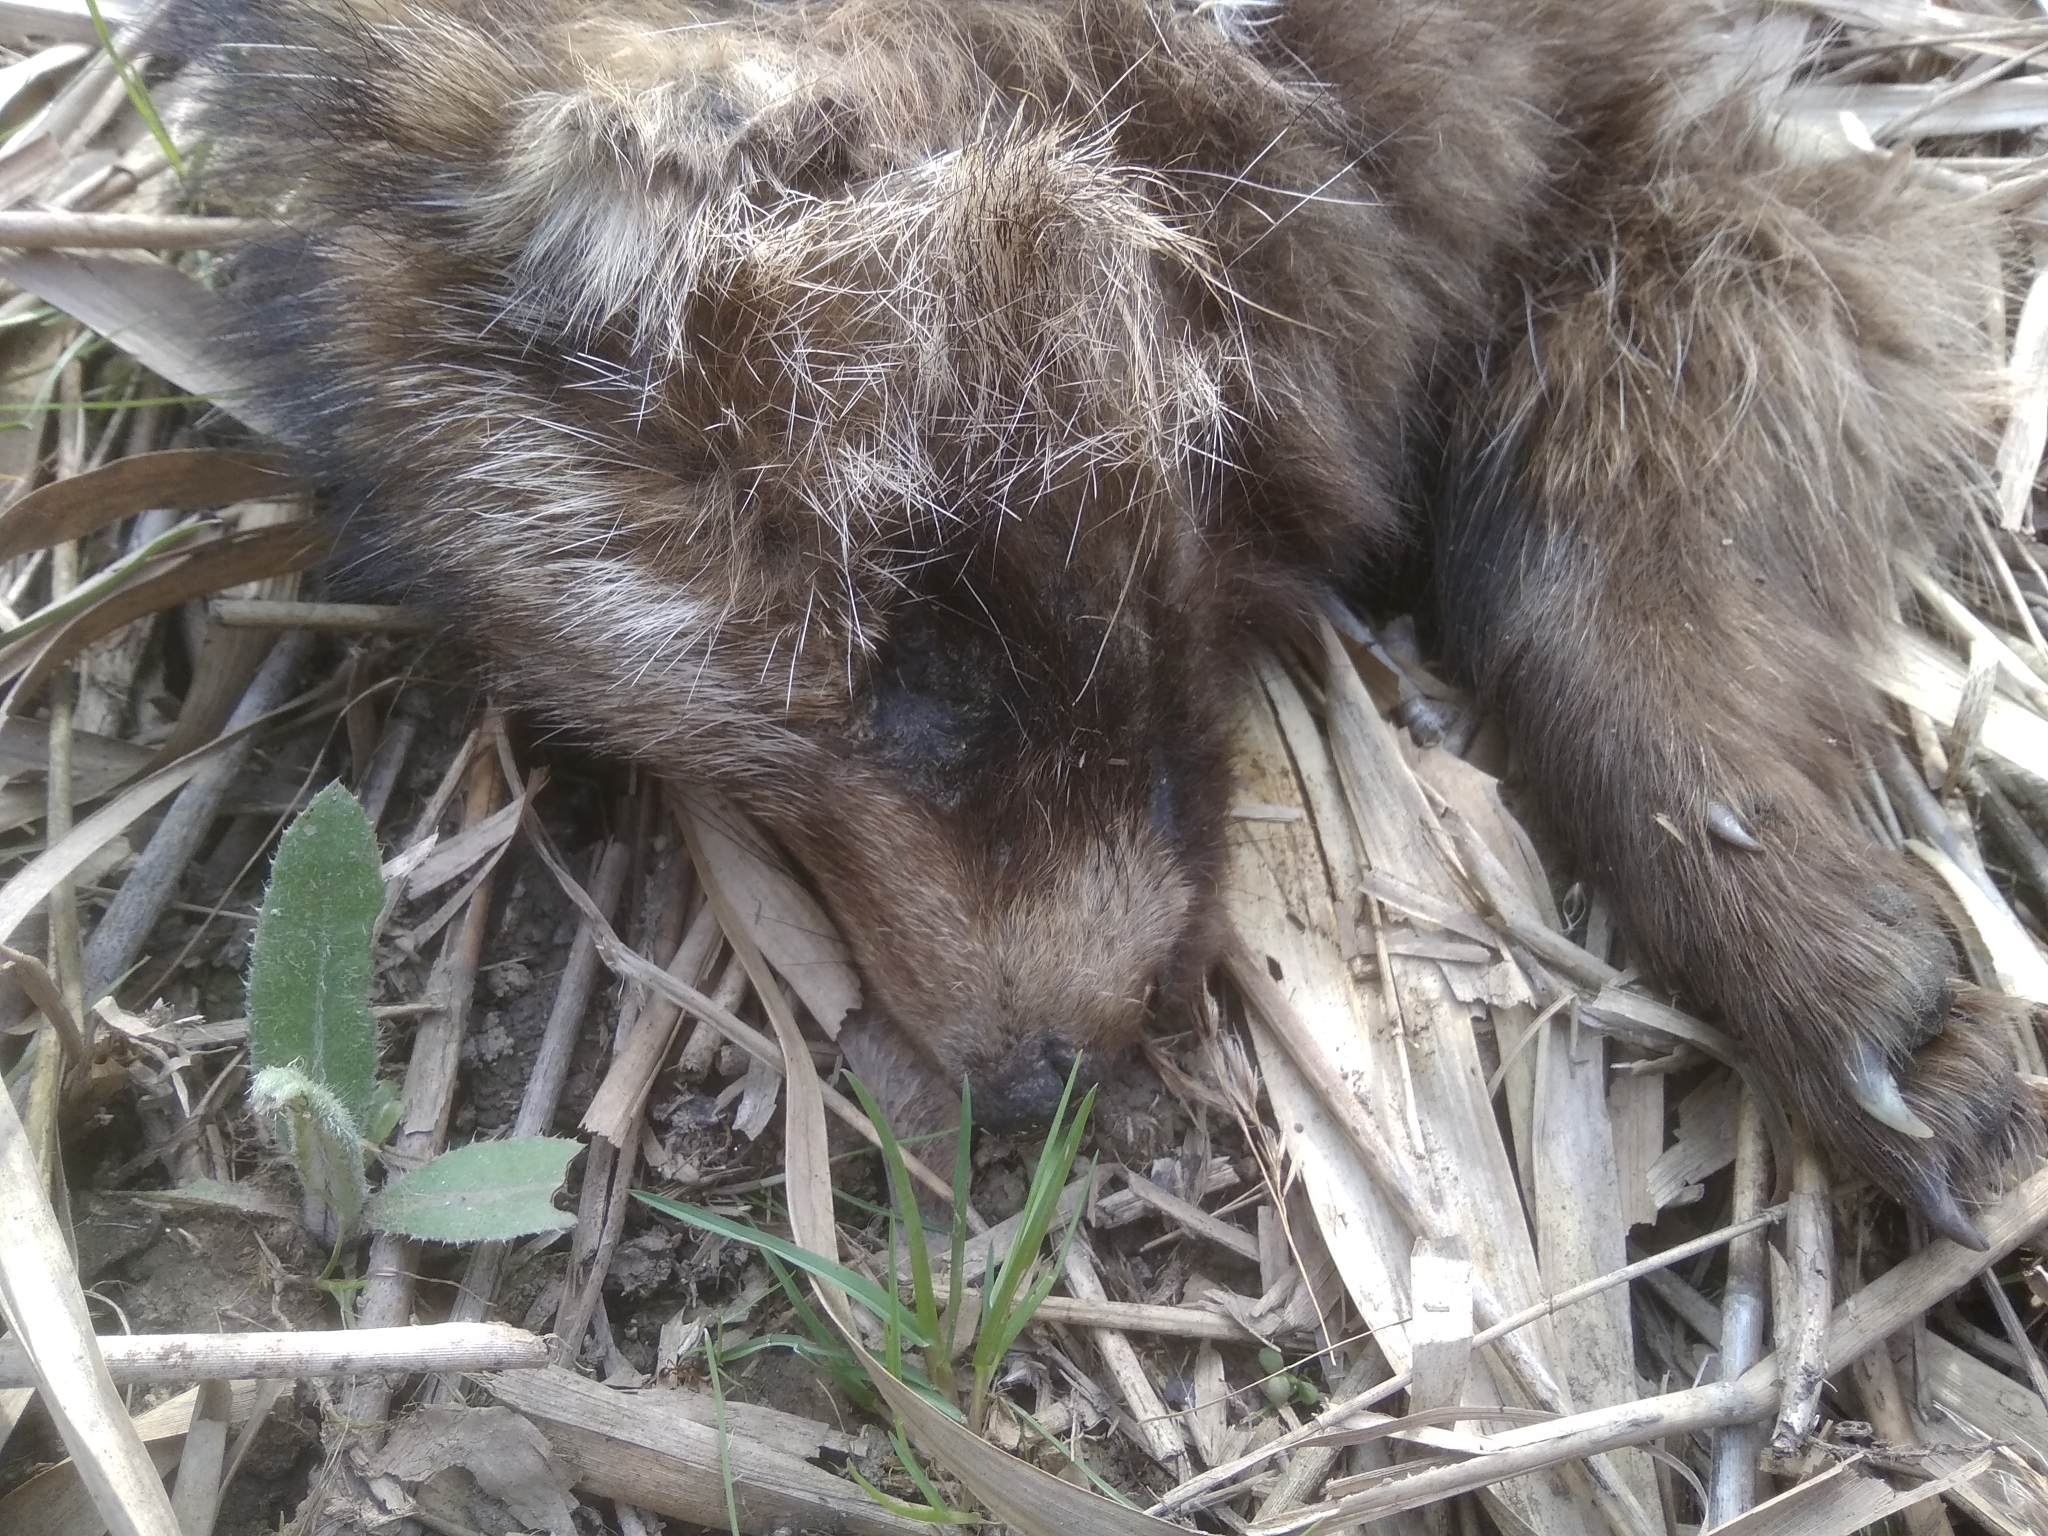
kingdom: Animalia
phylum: Chordata
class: Mammalia
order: Carnivora
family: Canidae
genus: Nyctereutes
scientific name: Nyctereutes procyonoides
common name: Raccoon dog
